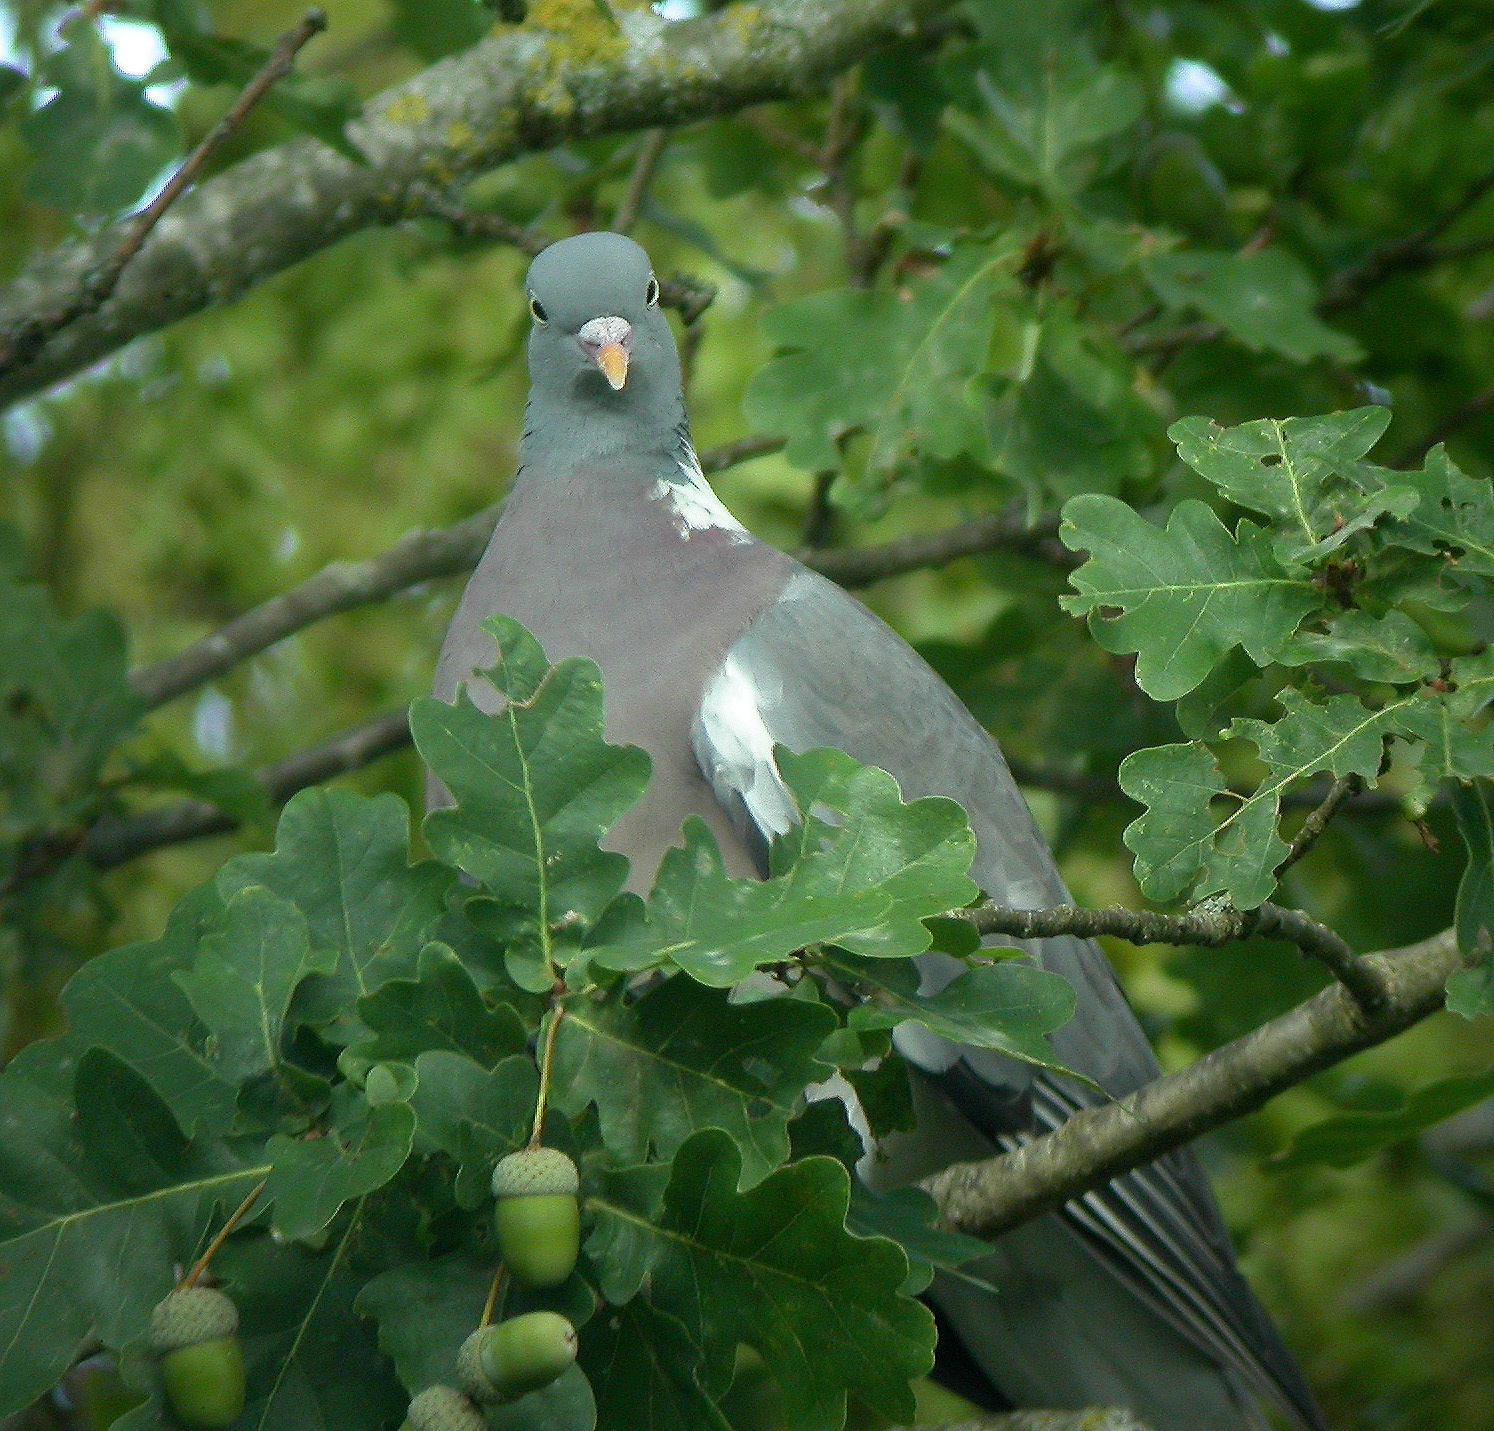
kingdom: Animalia
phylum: Chordata
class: Aves
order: Columbiformes
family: Columbidae
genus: Columba
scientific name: Columba palumbus
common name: Common wood pigeon
